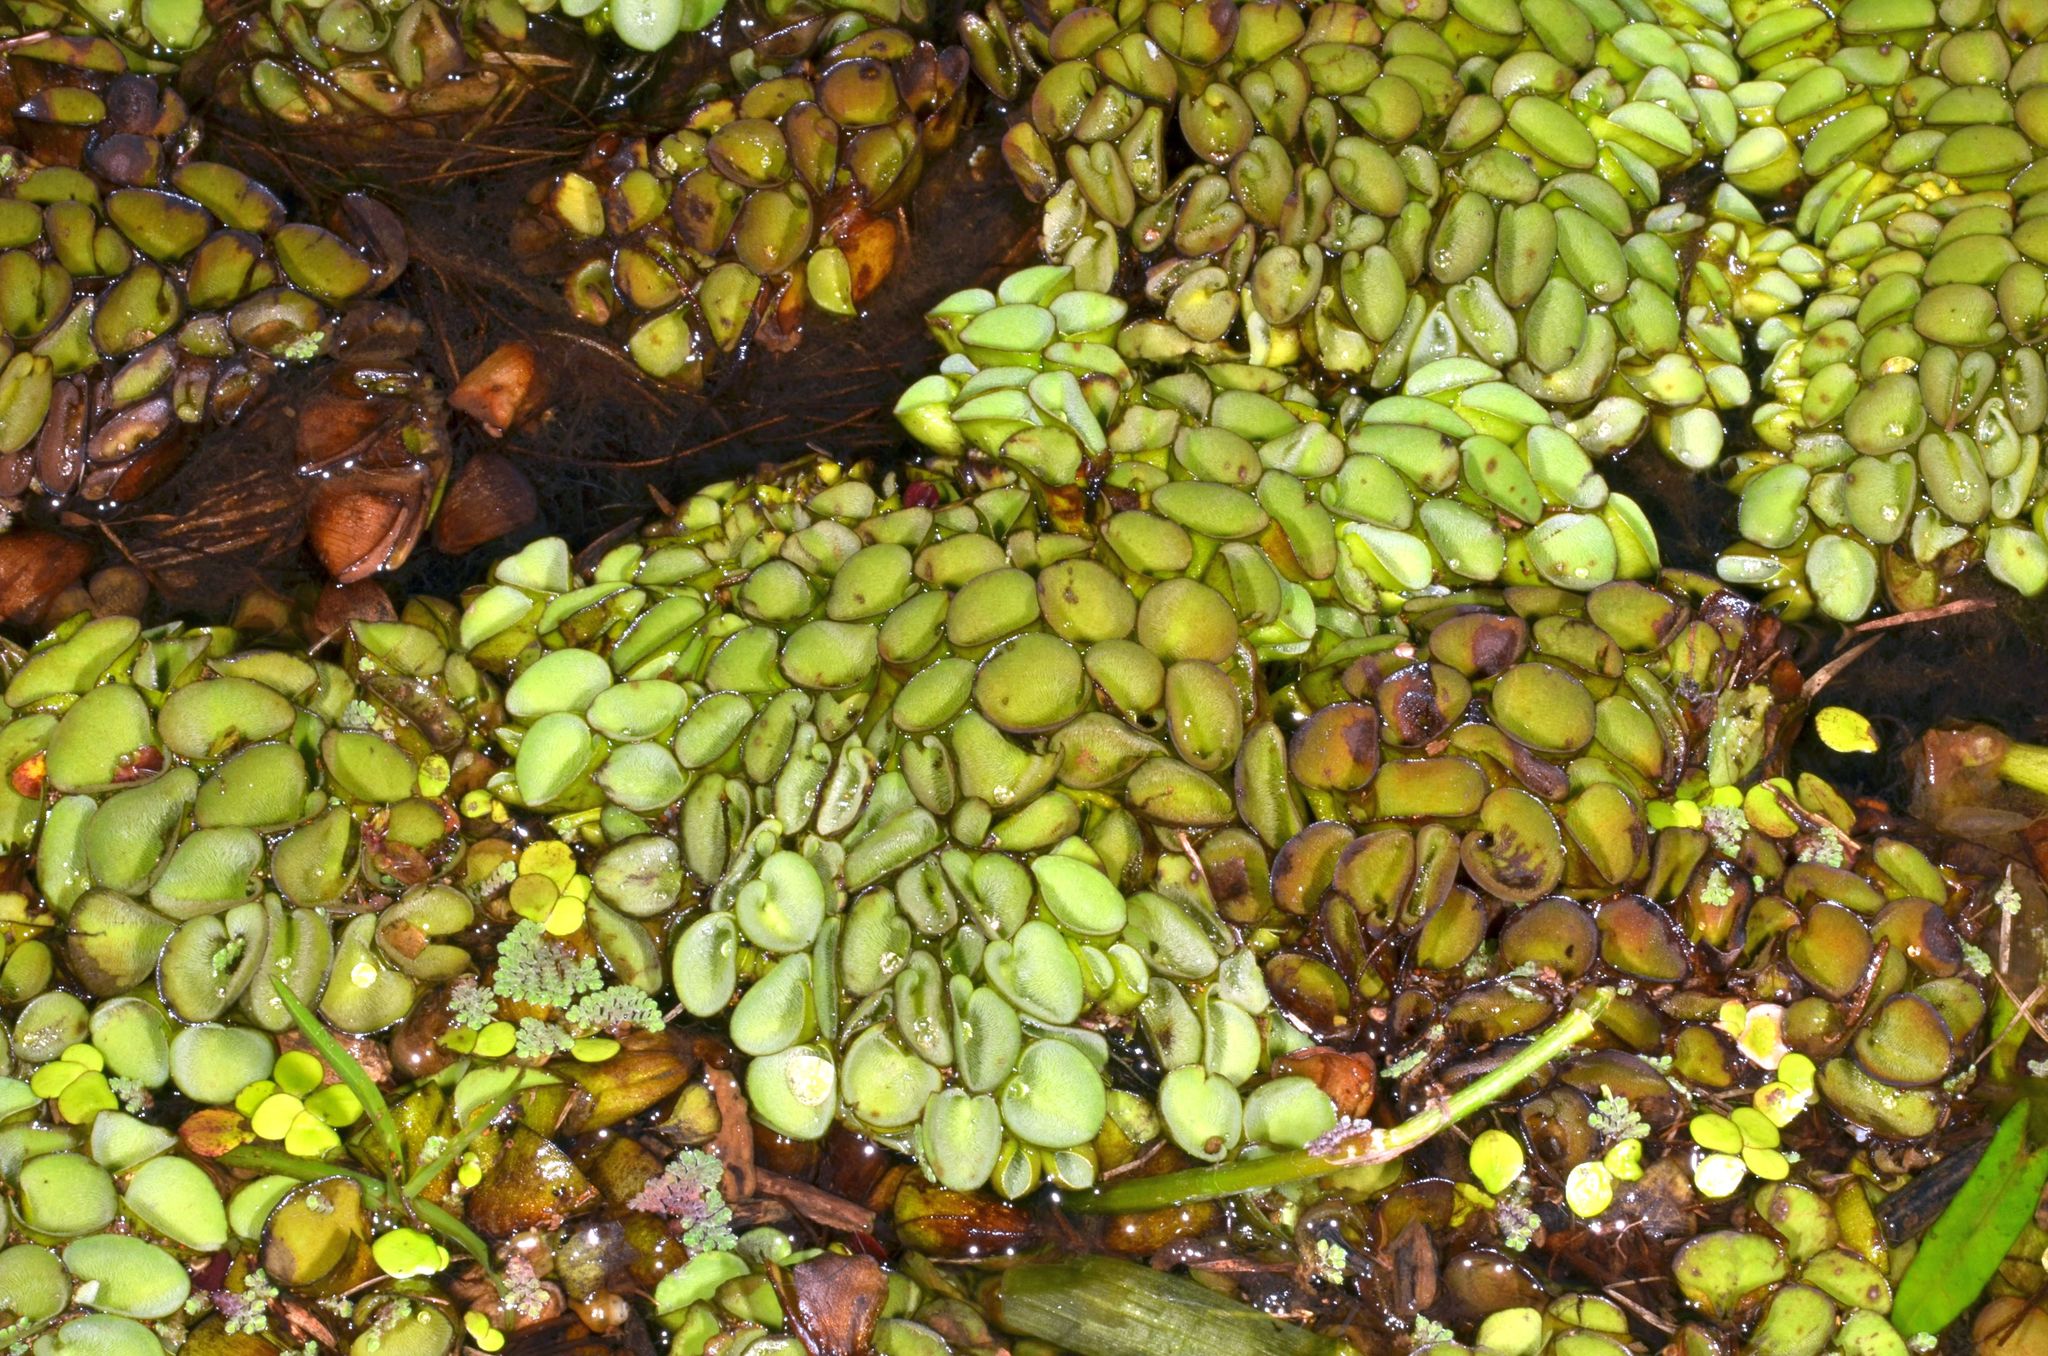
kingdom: Plantae
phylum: Tracheophyta
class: Polypodiopsida
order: Salviniales
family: Salviniaceae
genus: Salvinia
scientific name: Salvinia cucullata
